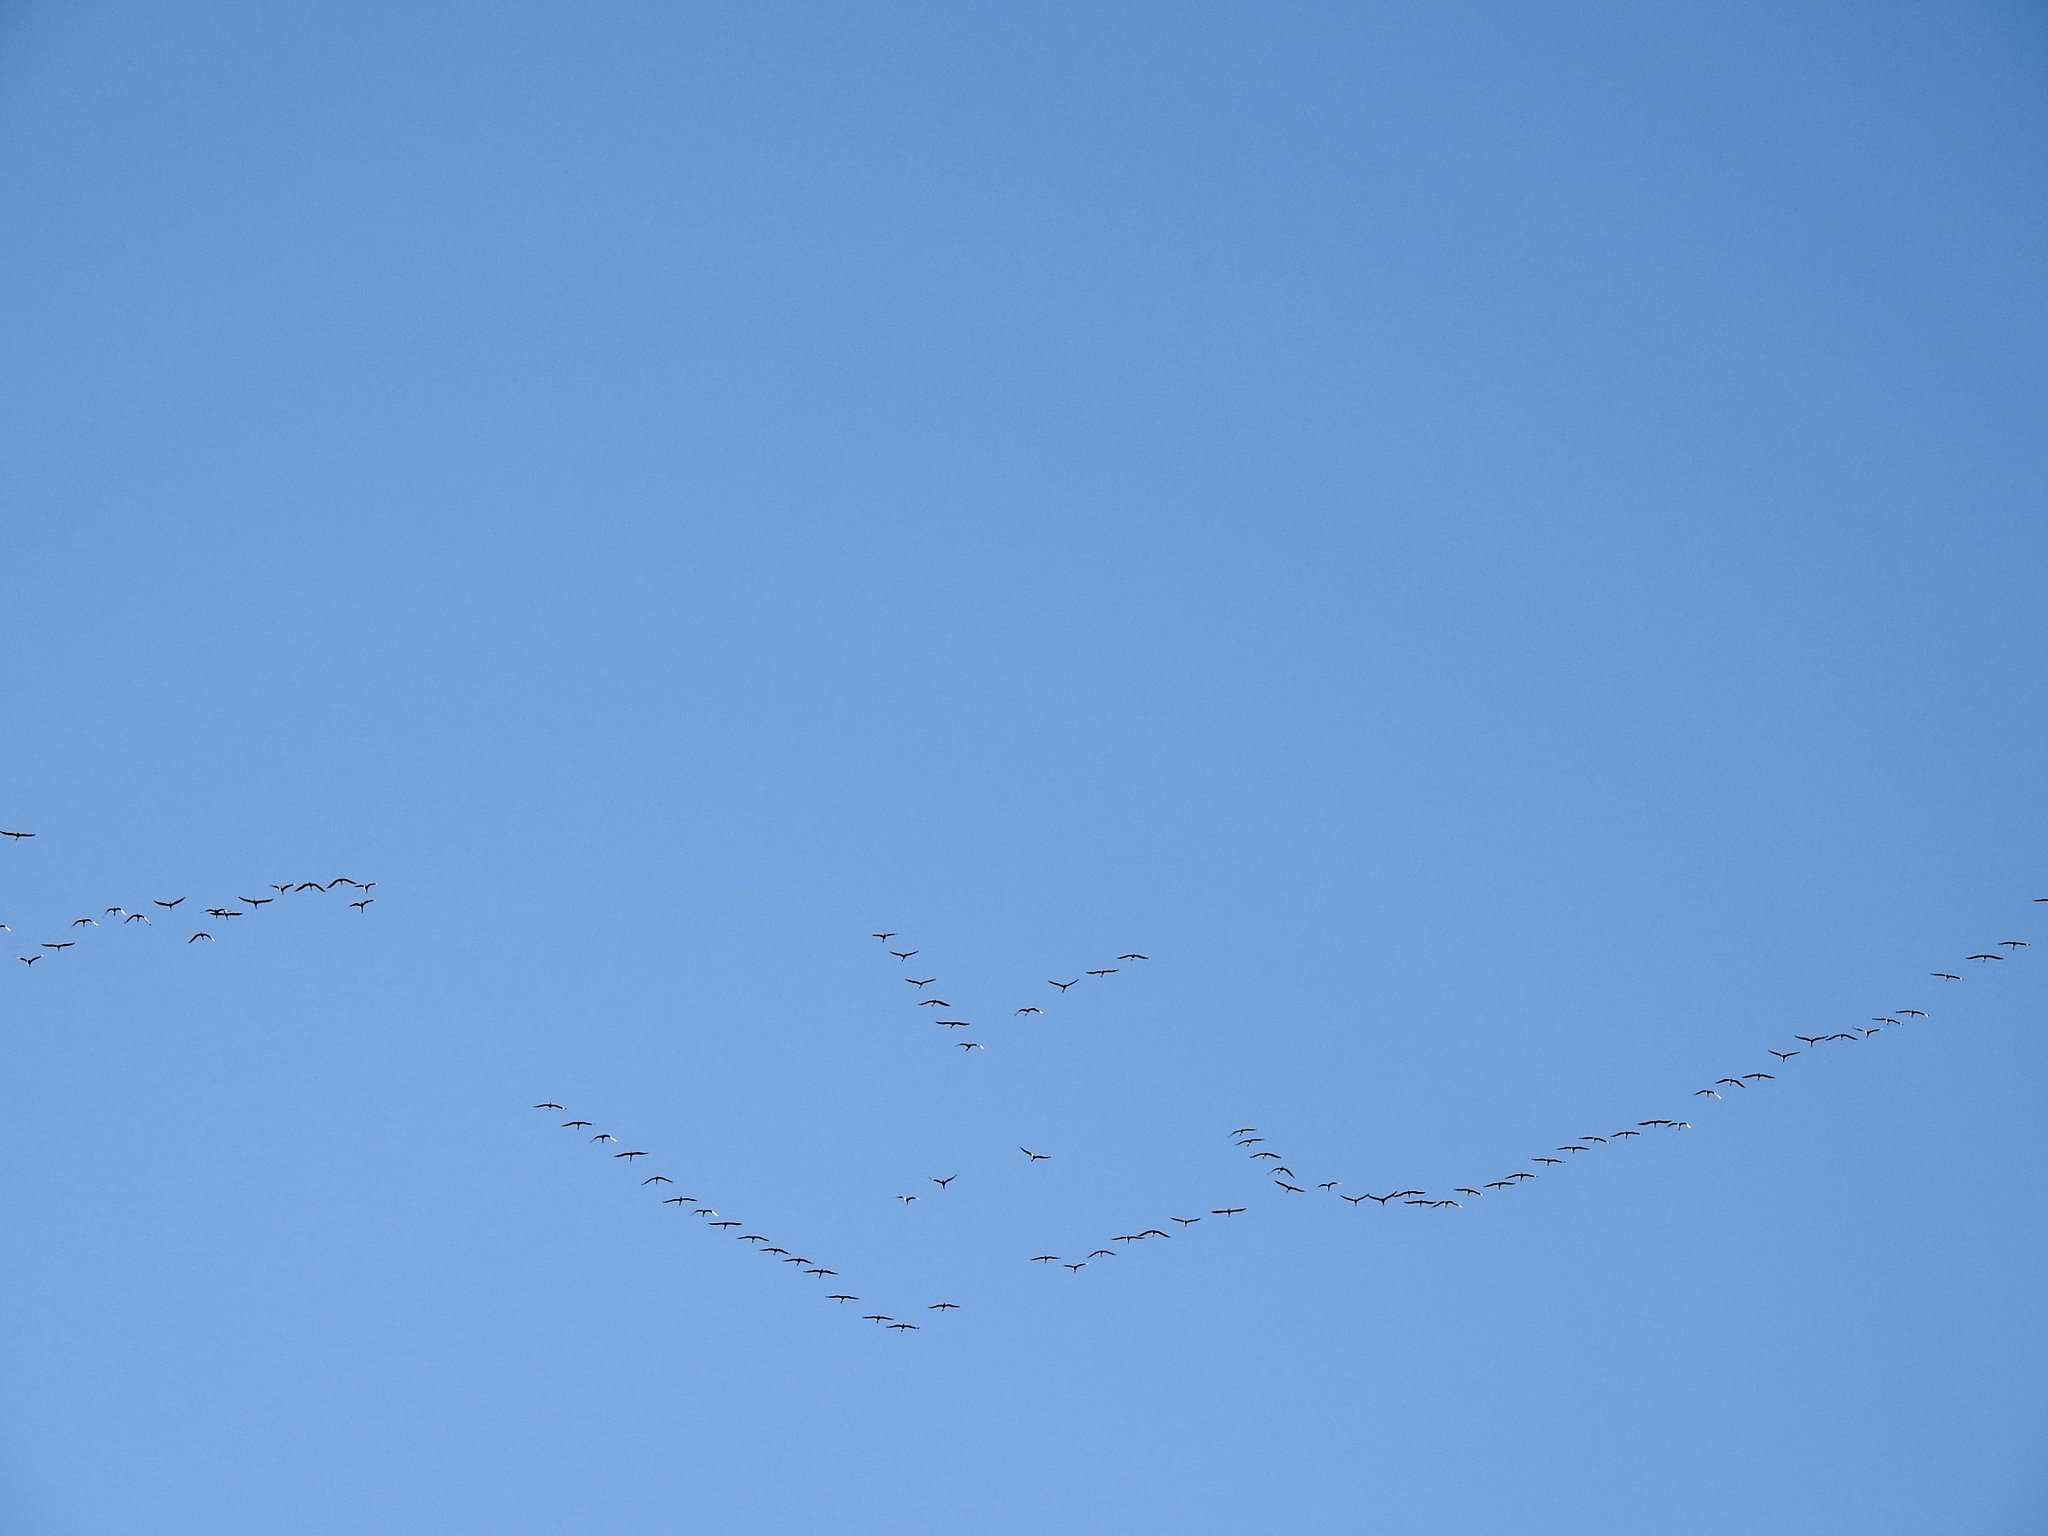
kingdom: Animalia
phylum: Chordata
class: Aves
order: Gruiformes
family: Gruidae
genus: Grus
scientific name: Grus canadensis
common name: Sandhill crane
